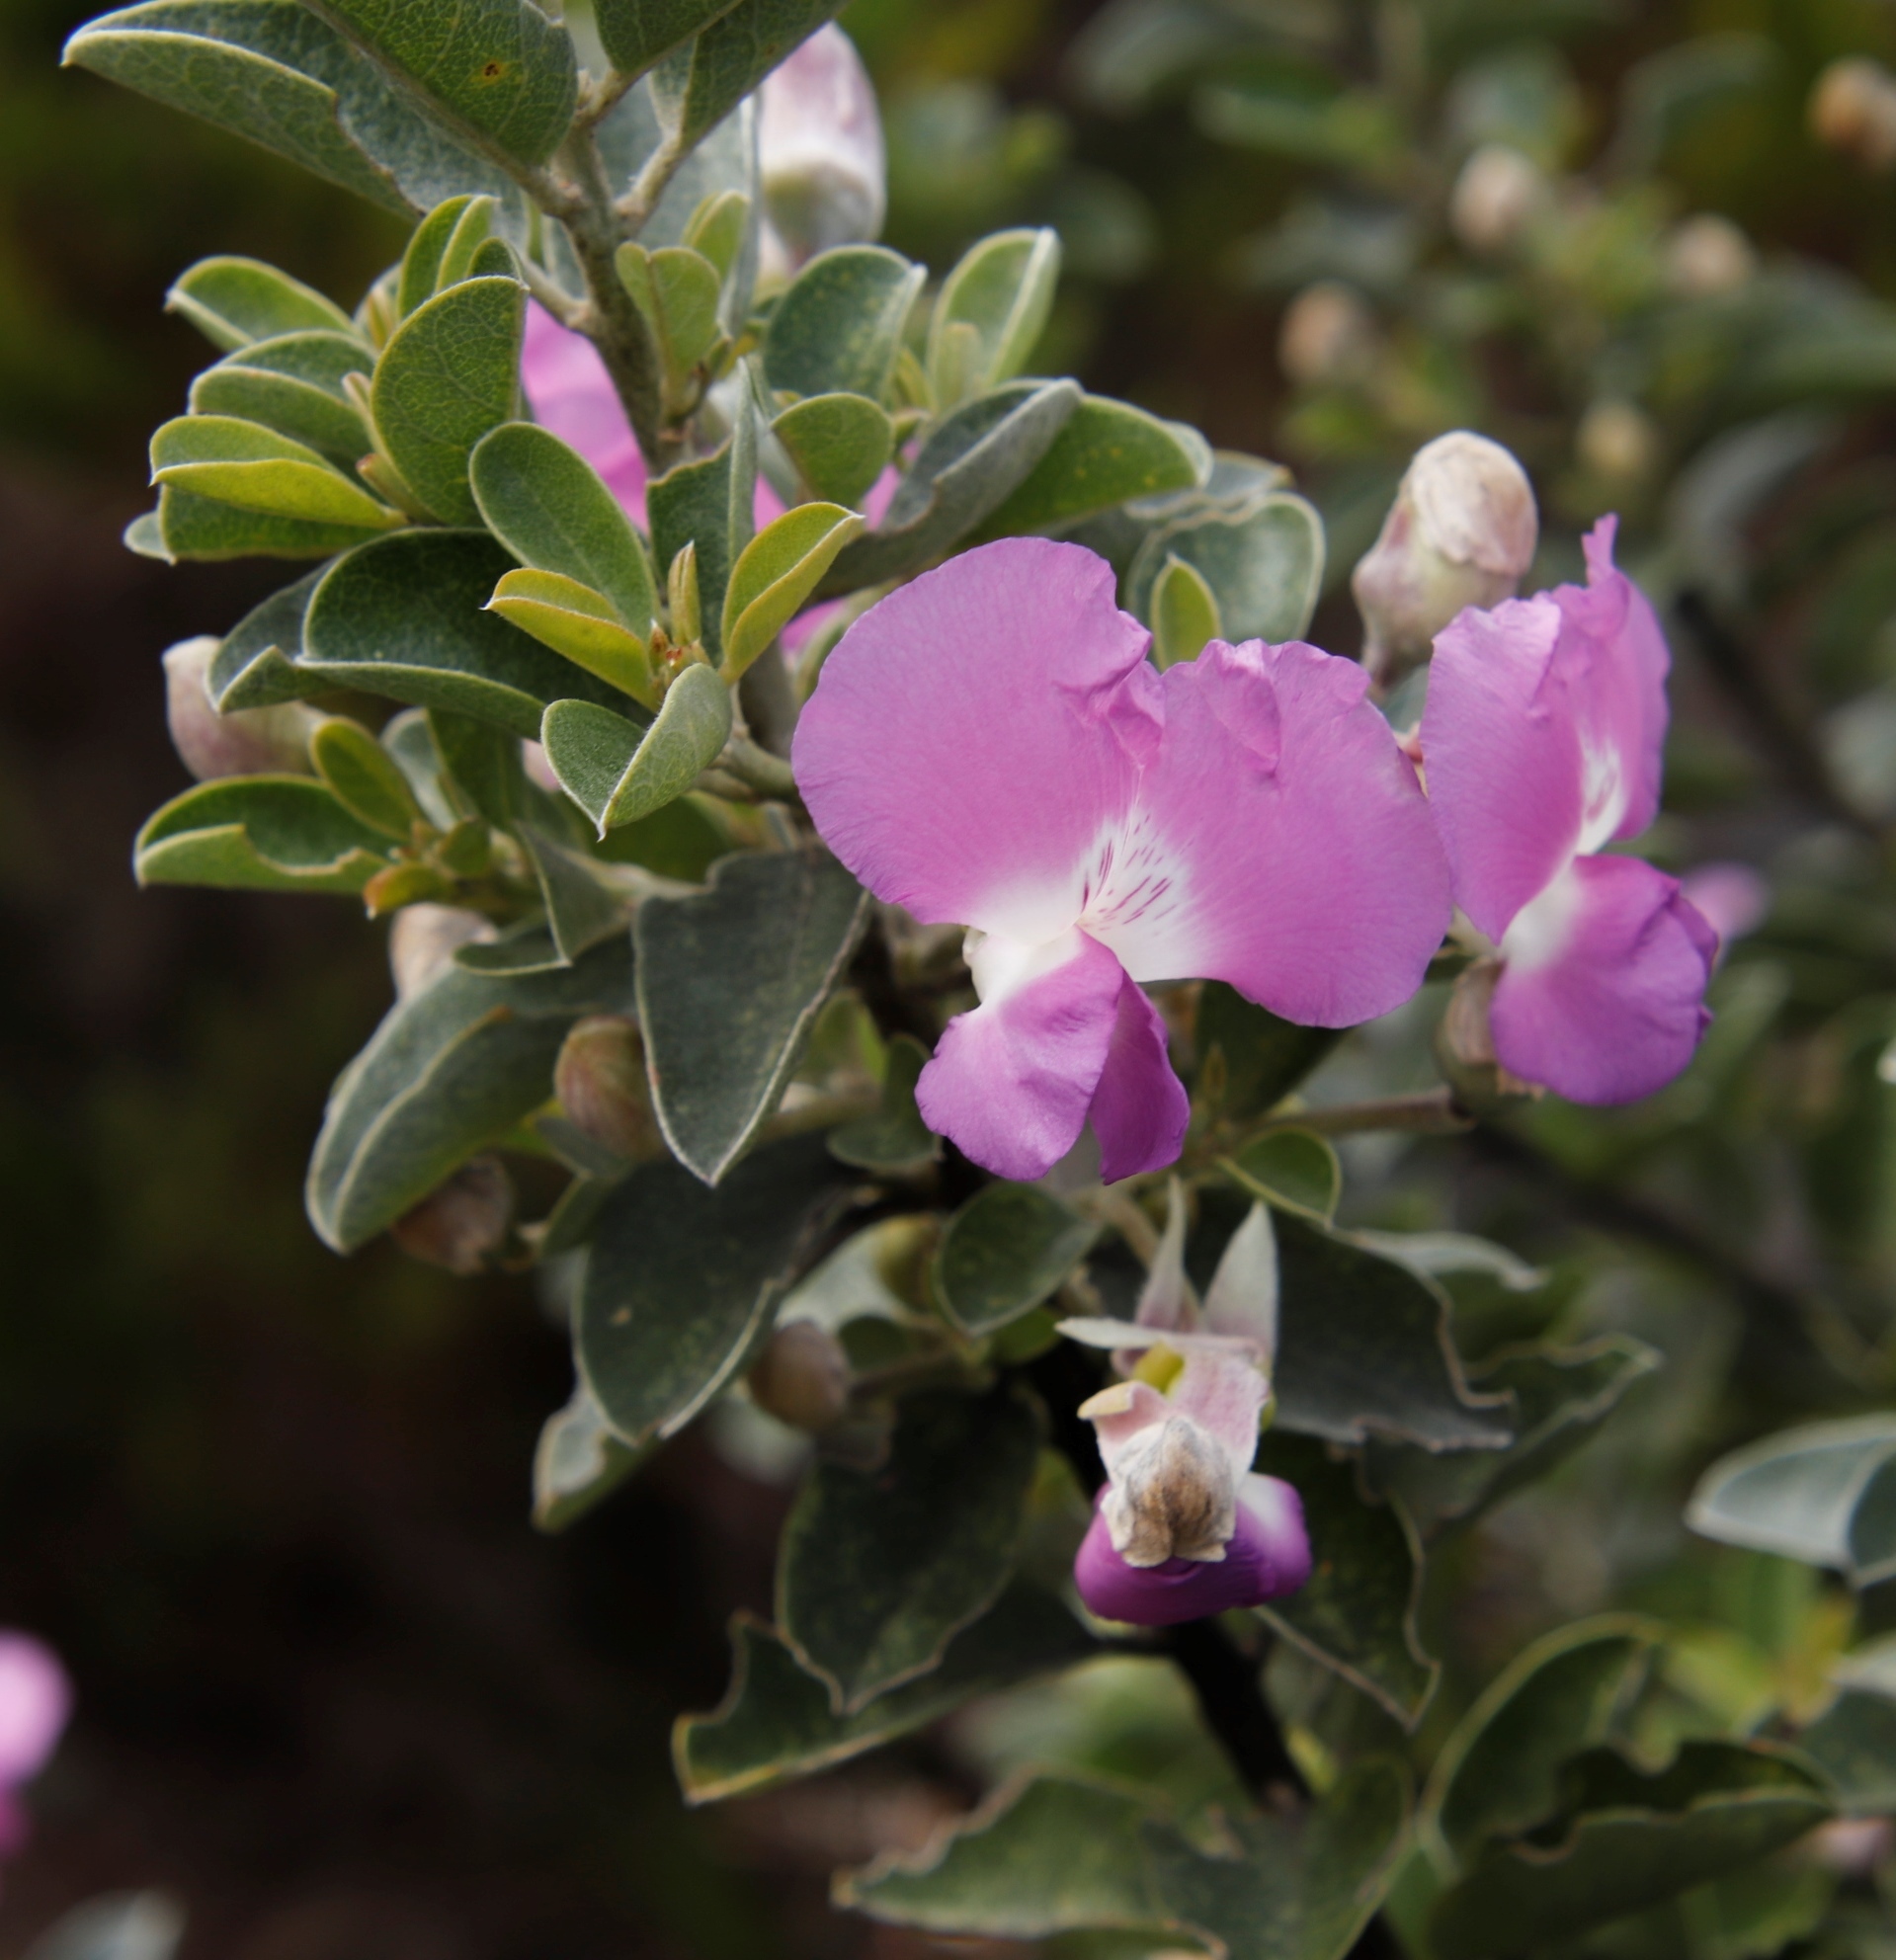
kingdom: Plantae
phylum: Tracheophyta
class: Magnoliopsida
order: Fabales
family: Fabaceae
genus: Podalyria
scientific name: Podalyria calyptrata
